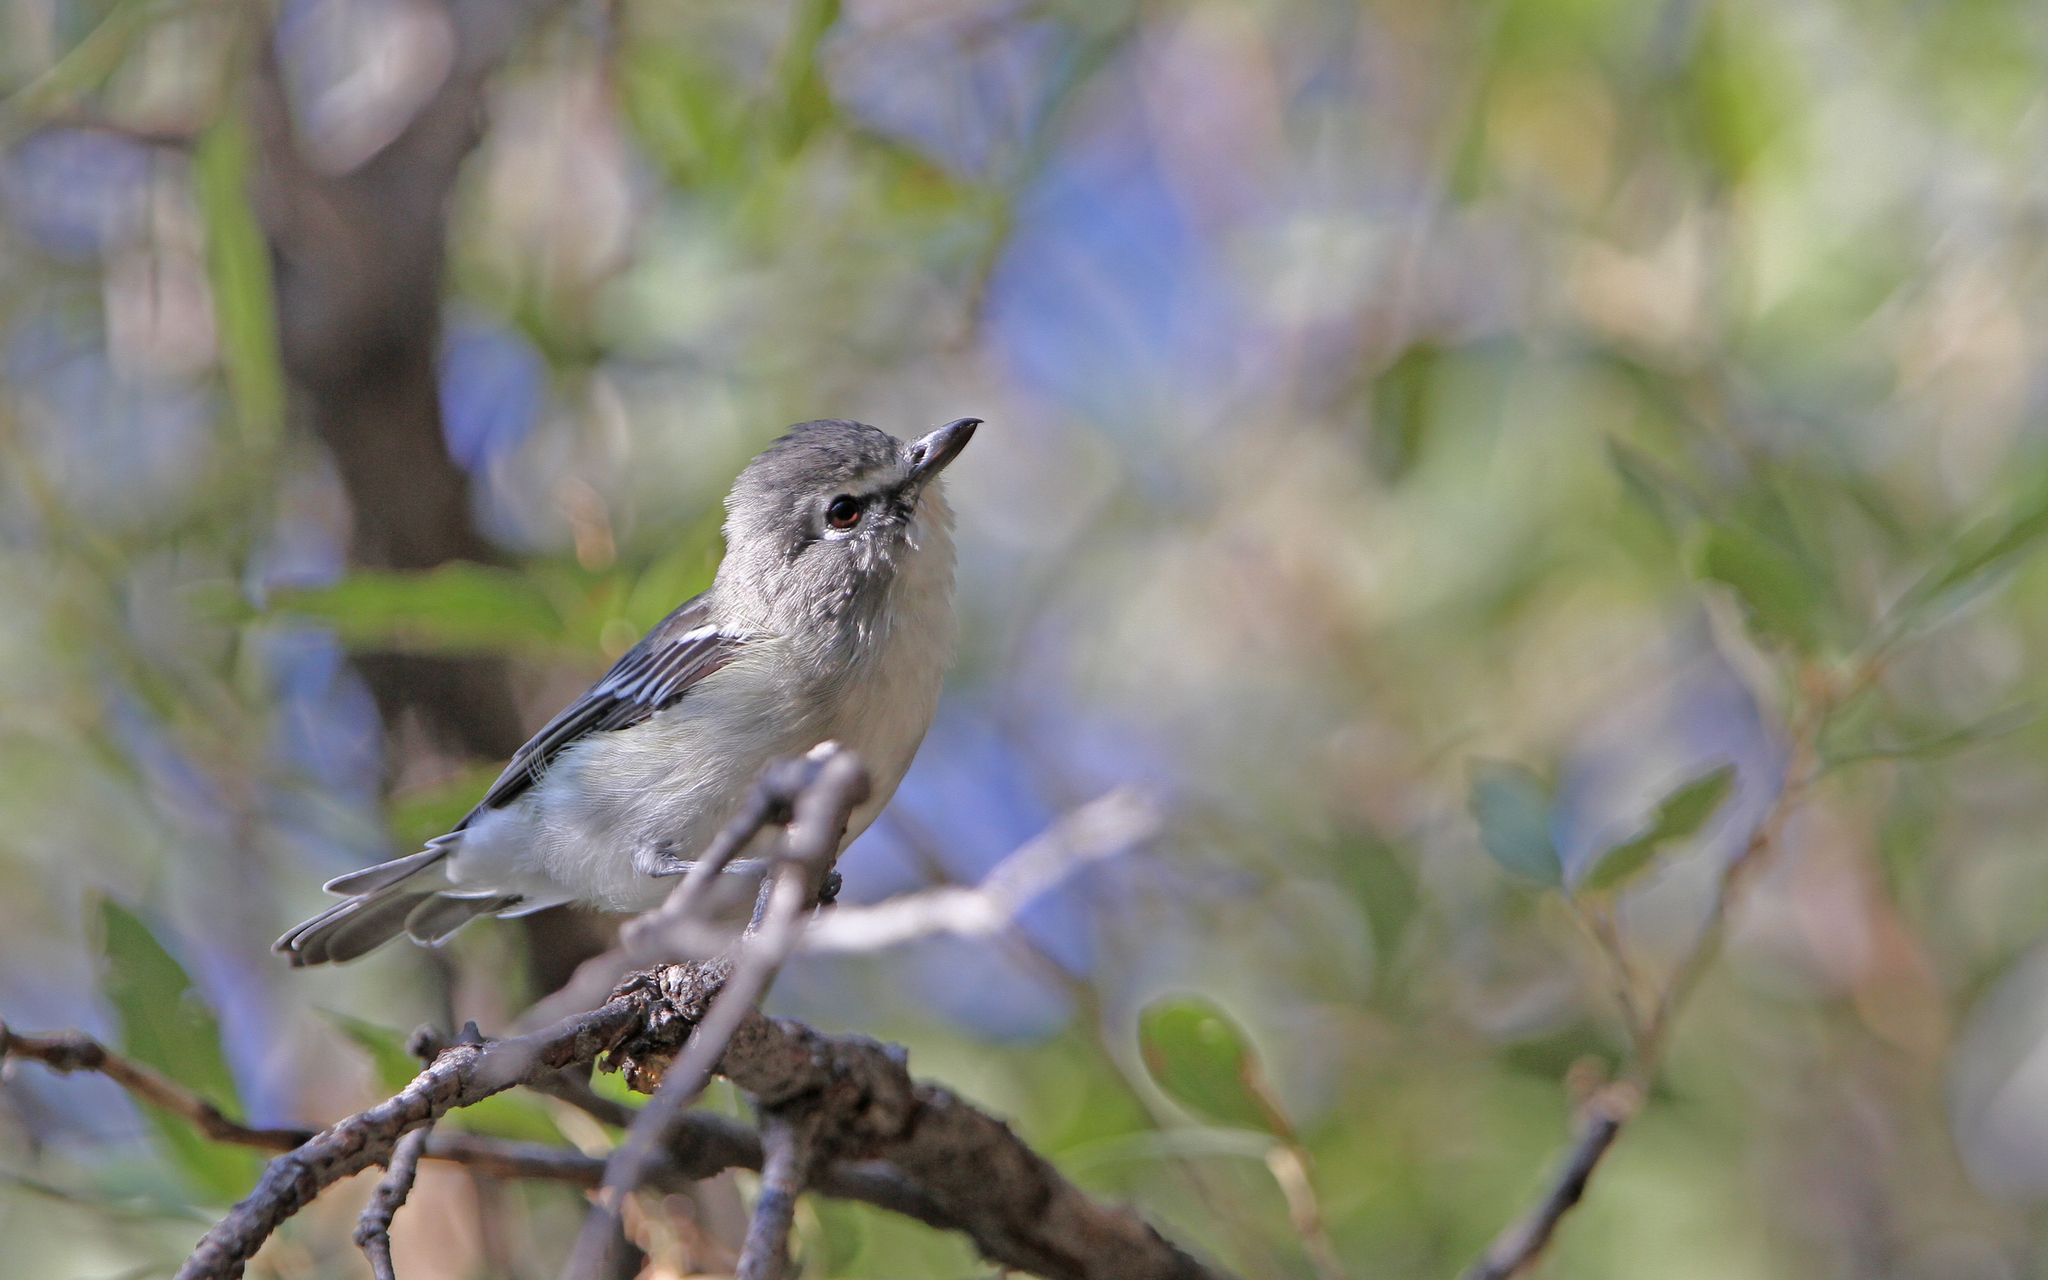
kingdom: Animalia
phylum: Chordata
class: Aves
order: Passeriformes
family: Vireonidae
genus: Vireo
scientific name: Vireo plumbeus
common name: Plumbeous vireo
